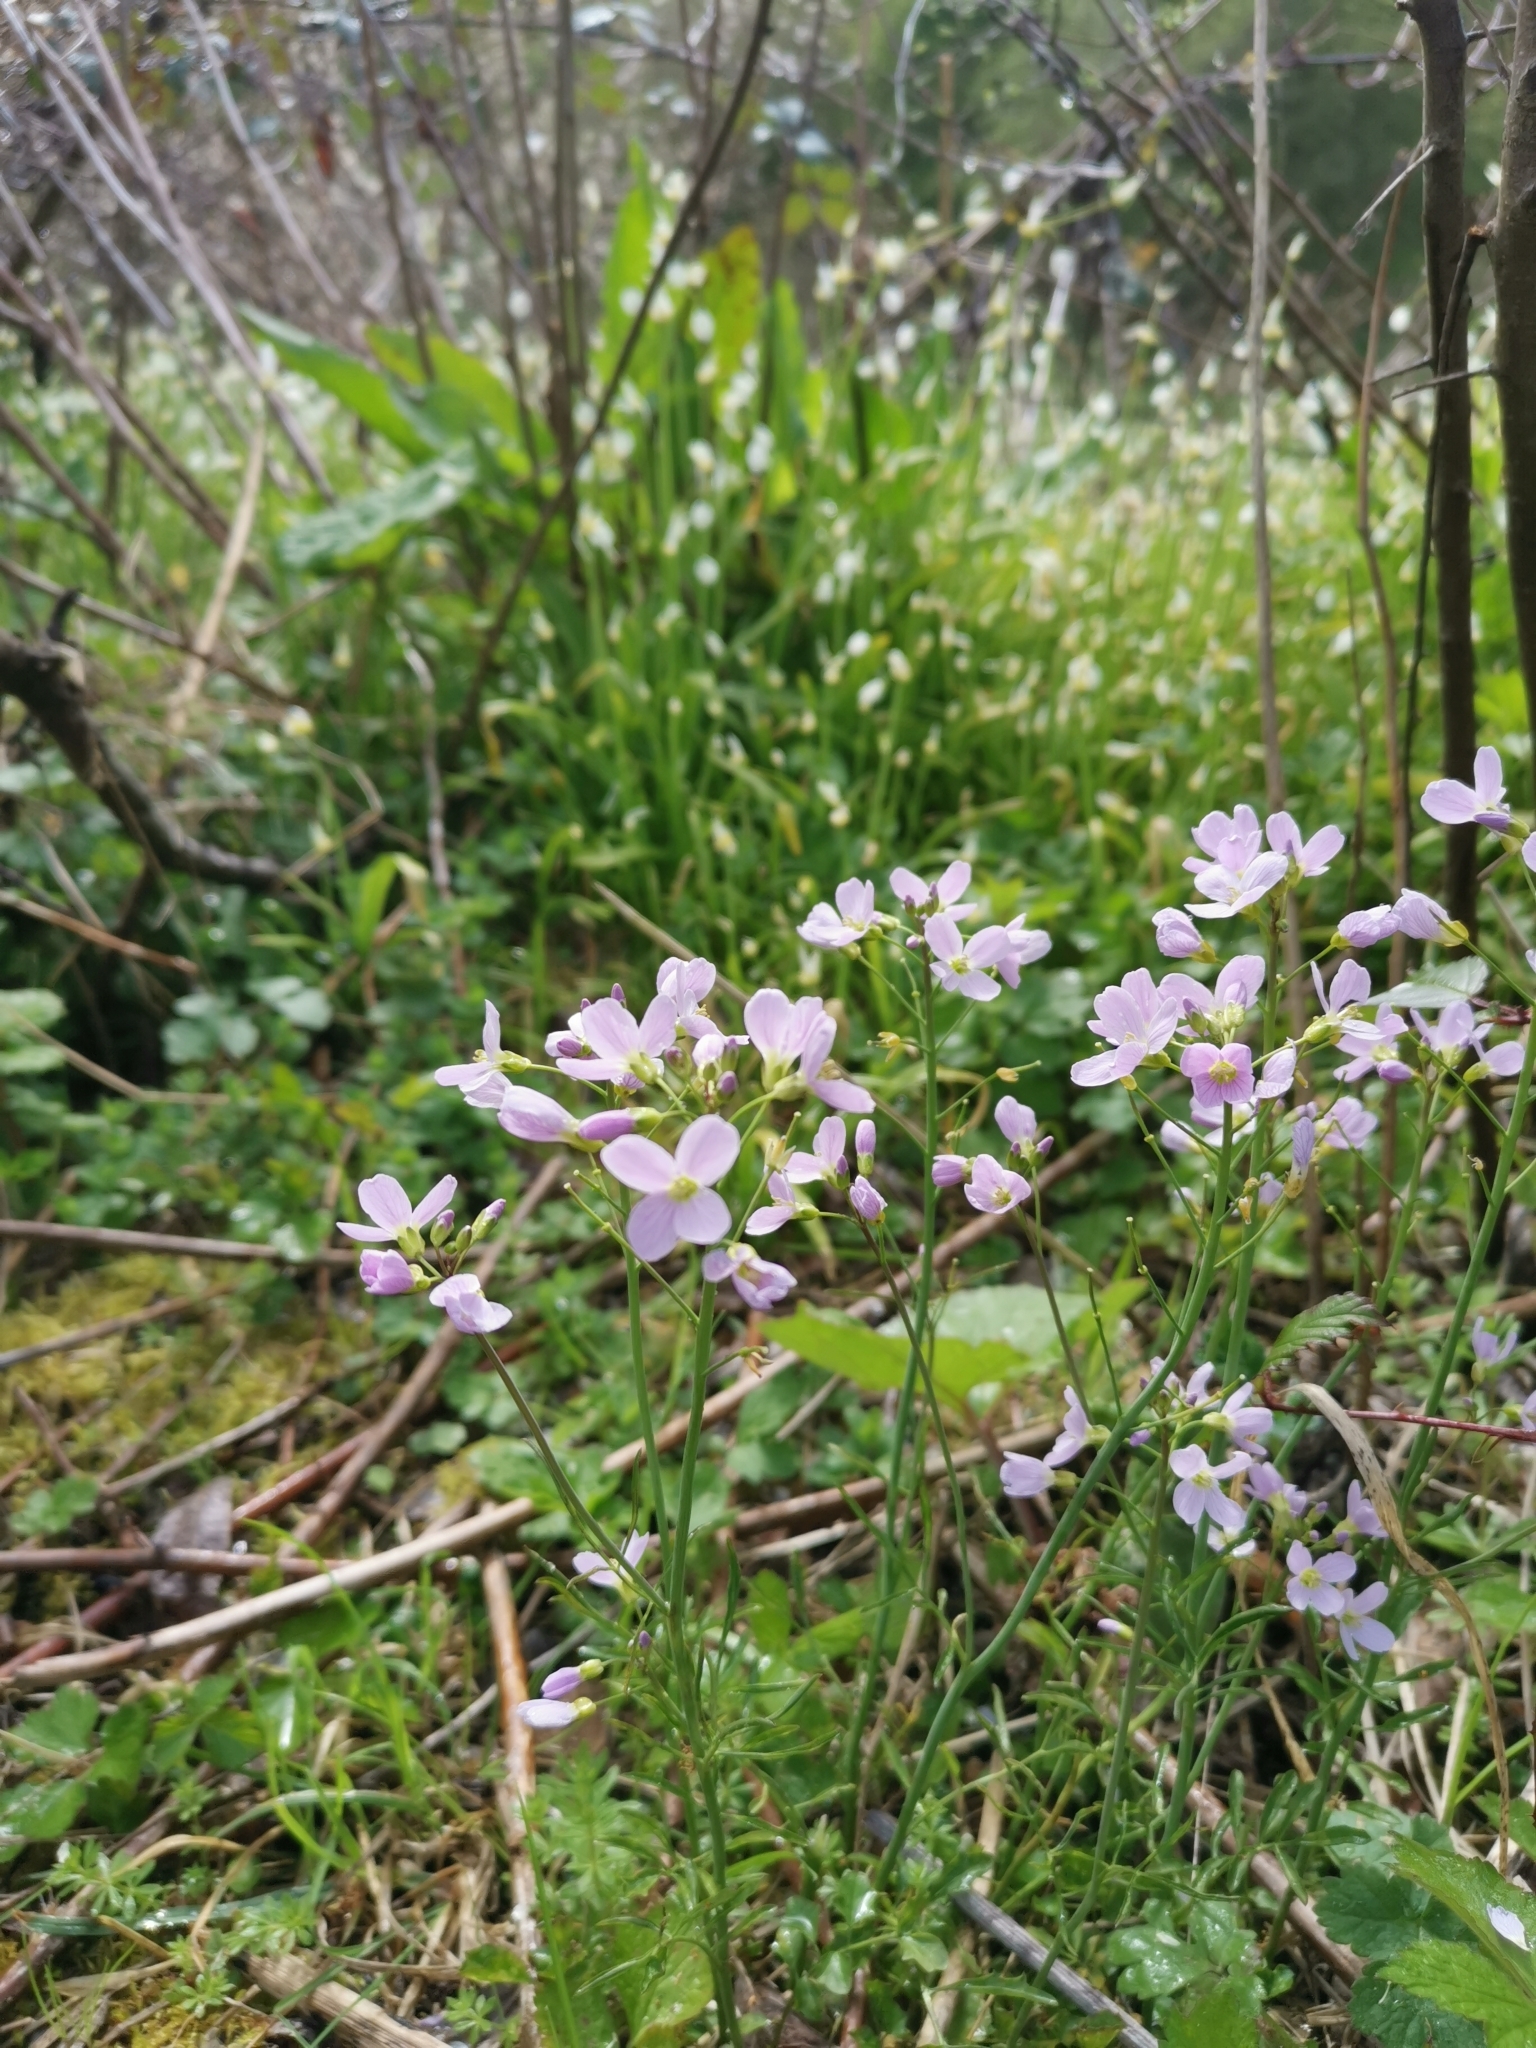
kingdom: Plantae
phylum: Tracheophyta
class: Magnoliopsida
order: Brassicales
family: Brassicaceae
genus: Cardamine
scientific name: Cardamine pratensis
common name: Cuckoo flower
